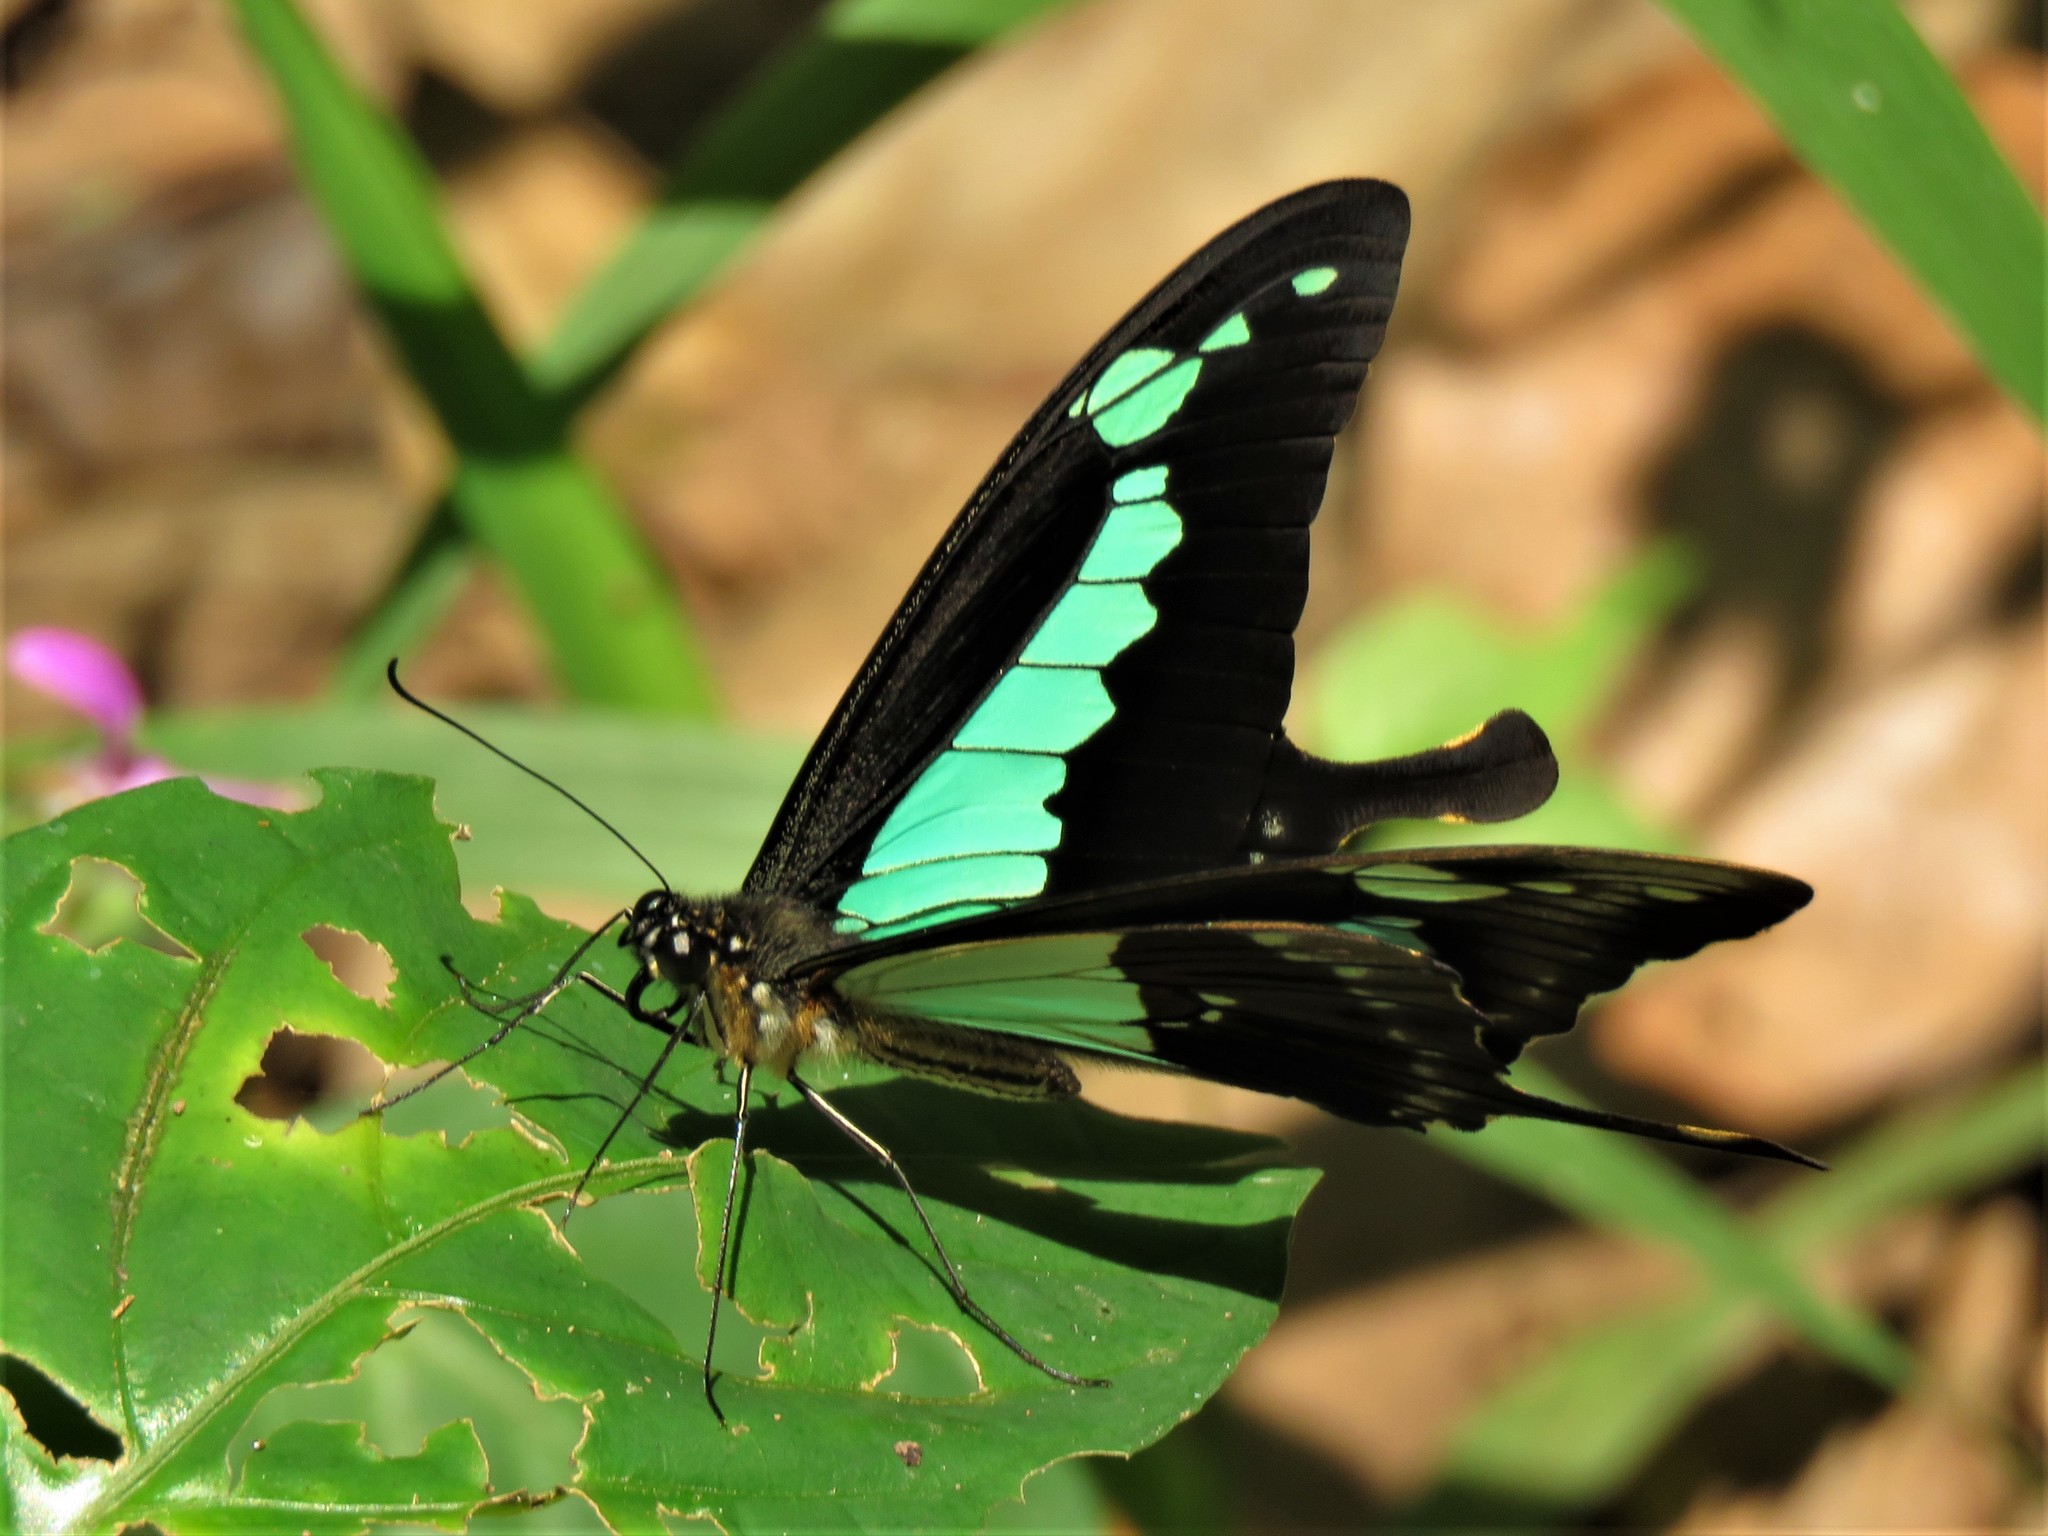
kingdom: Animalia
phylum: Arthropoda
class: Insecta
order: Lepidoptera
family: Papilionidae
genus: Papilio
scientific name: Papilio phorcas
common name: Apple-green swallowtail
